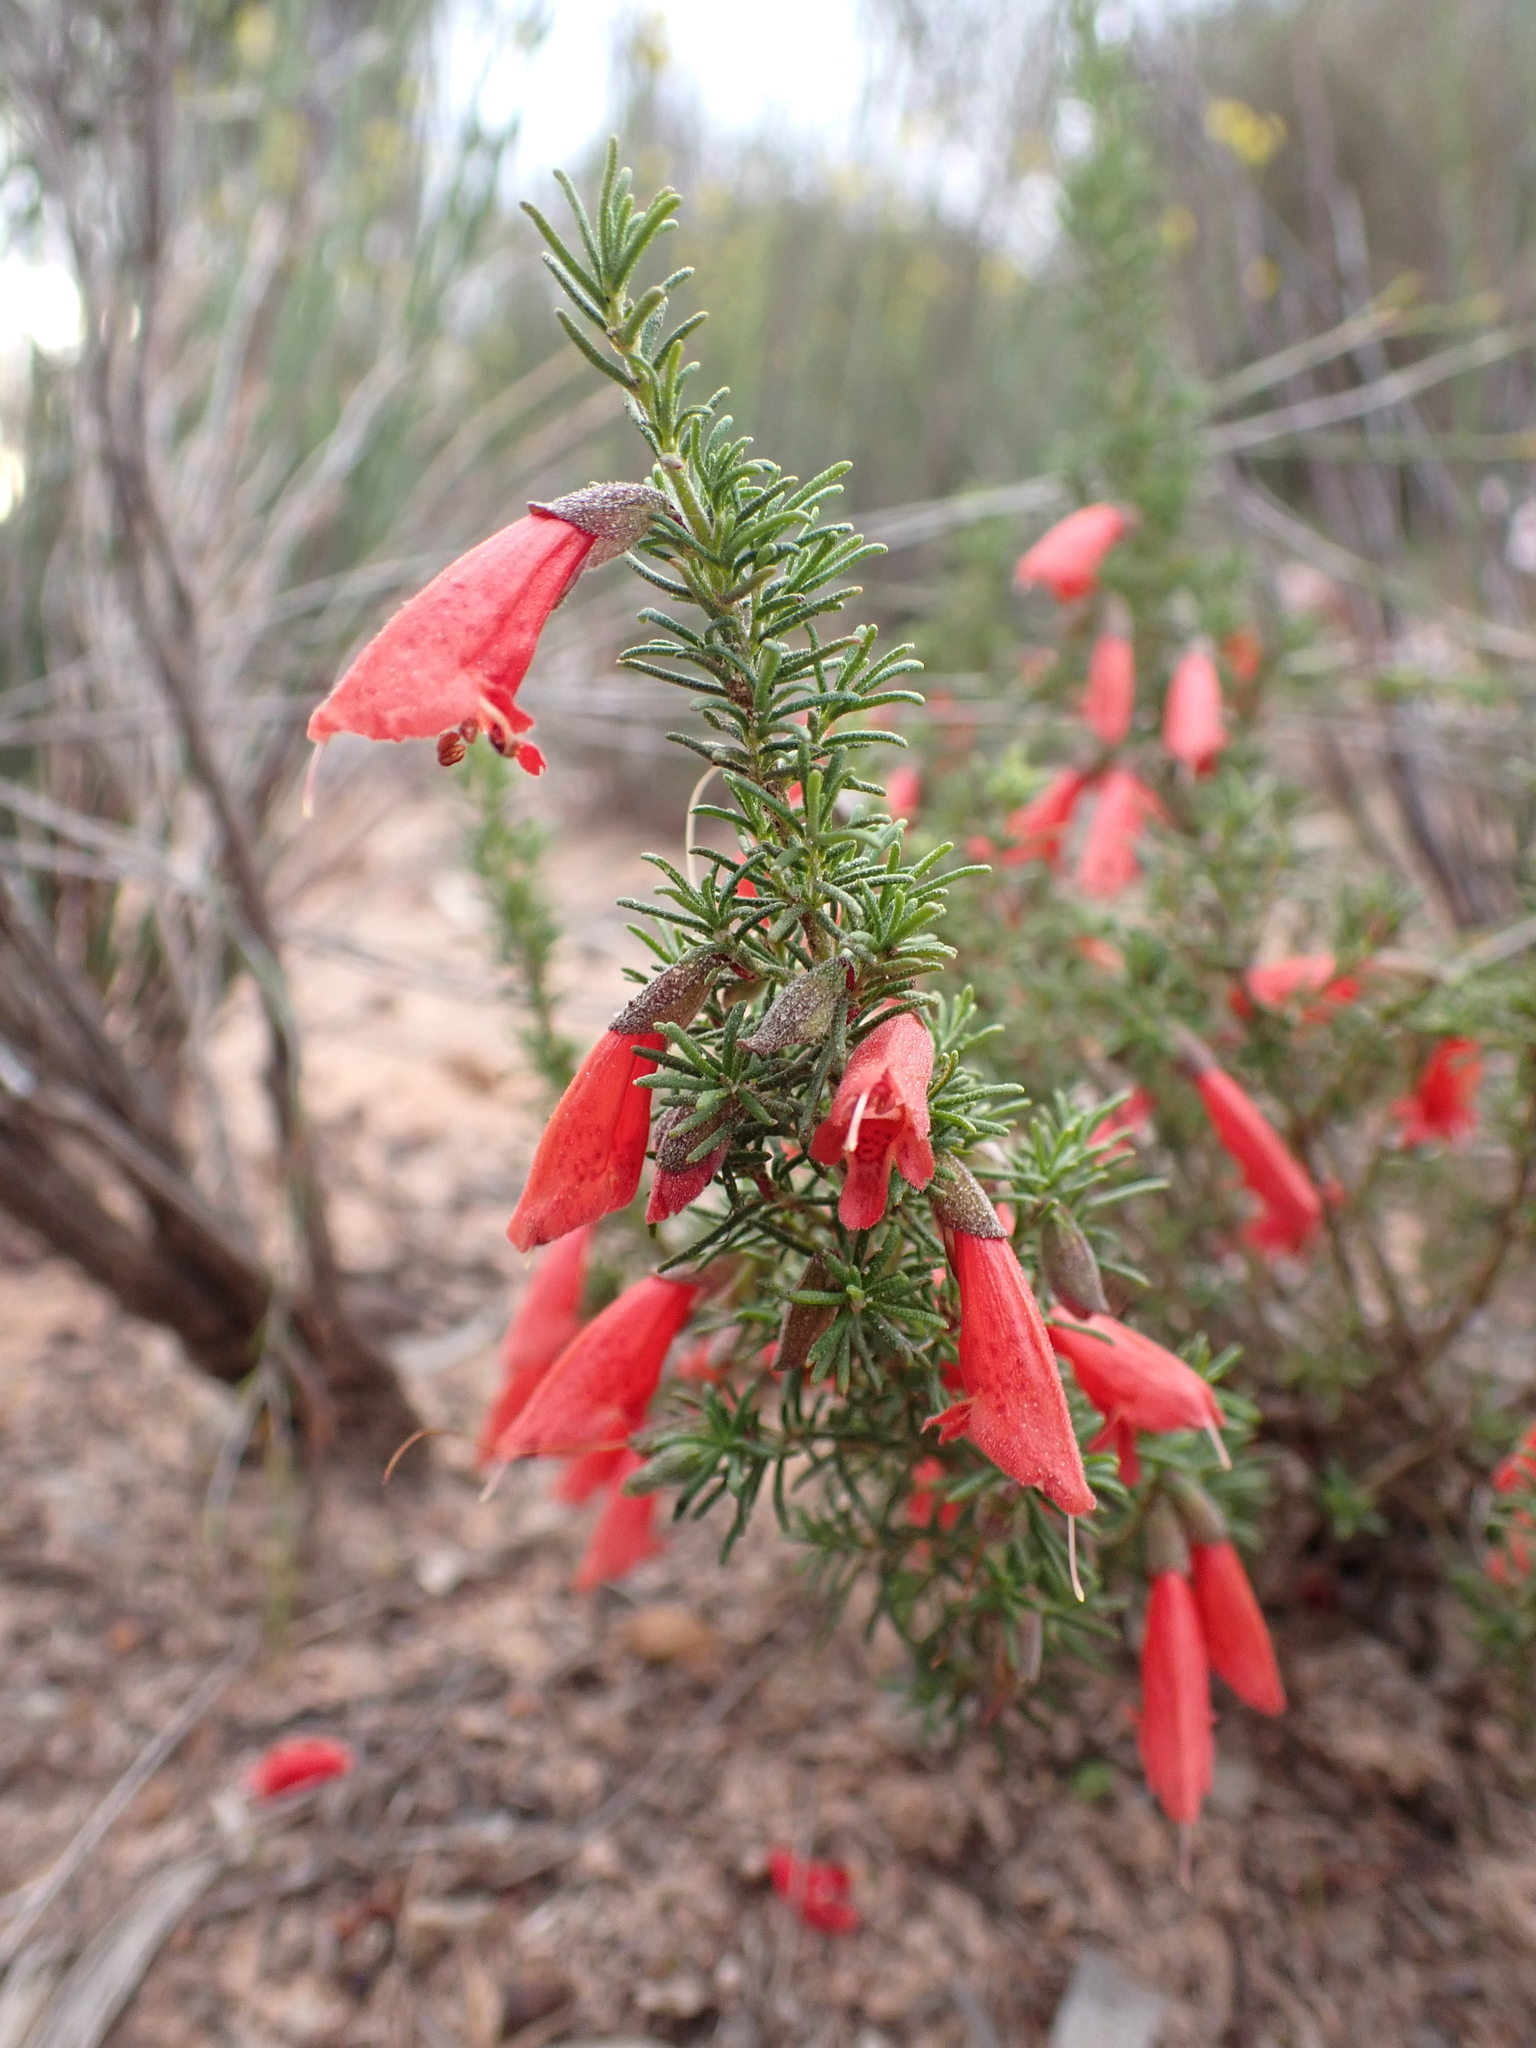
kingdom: Plantae
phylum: Tracheophyta
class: Magnoliopsida
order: Lamiales
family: Lamiaceae
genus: Prostanthera
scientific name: Prostanthera aspalathoides
